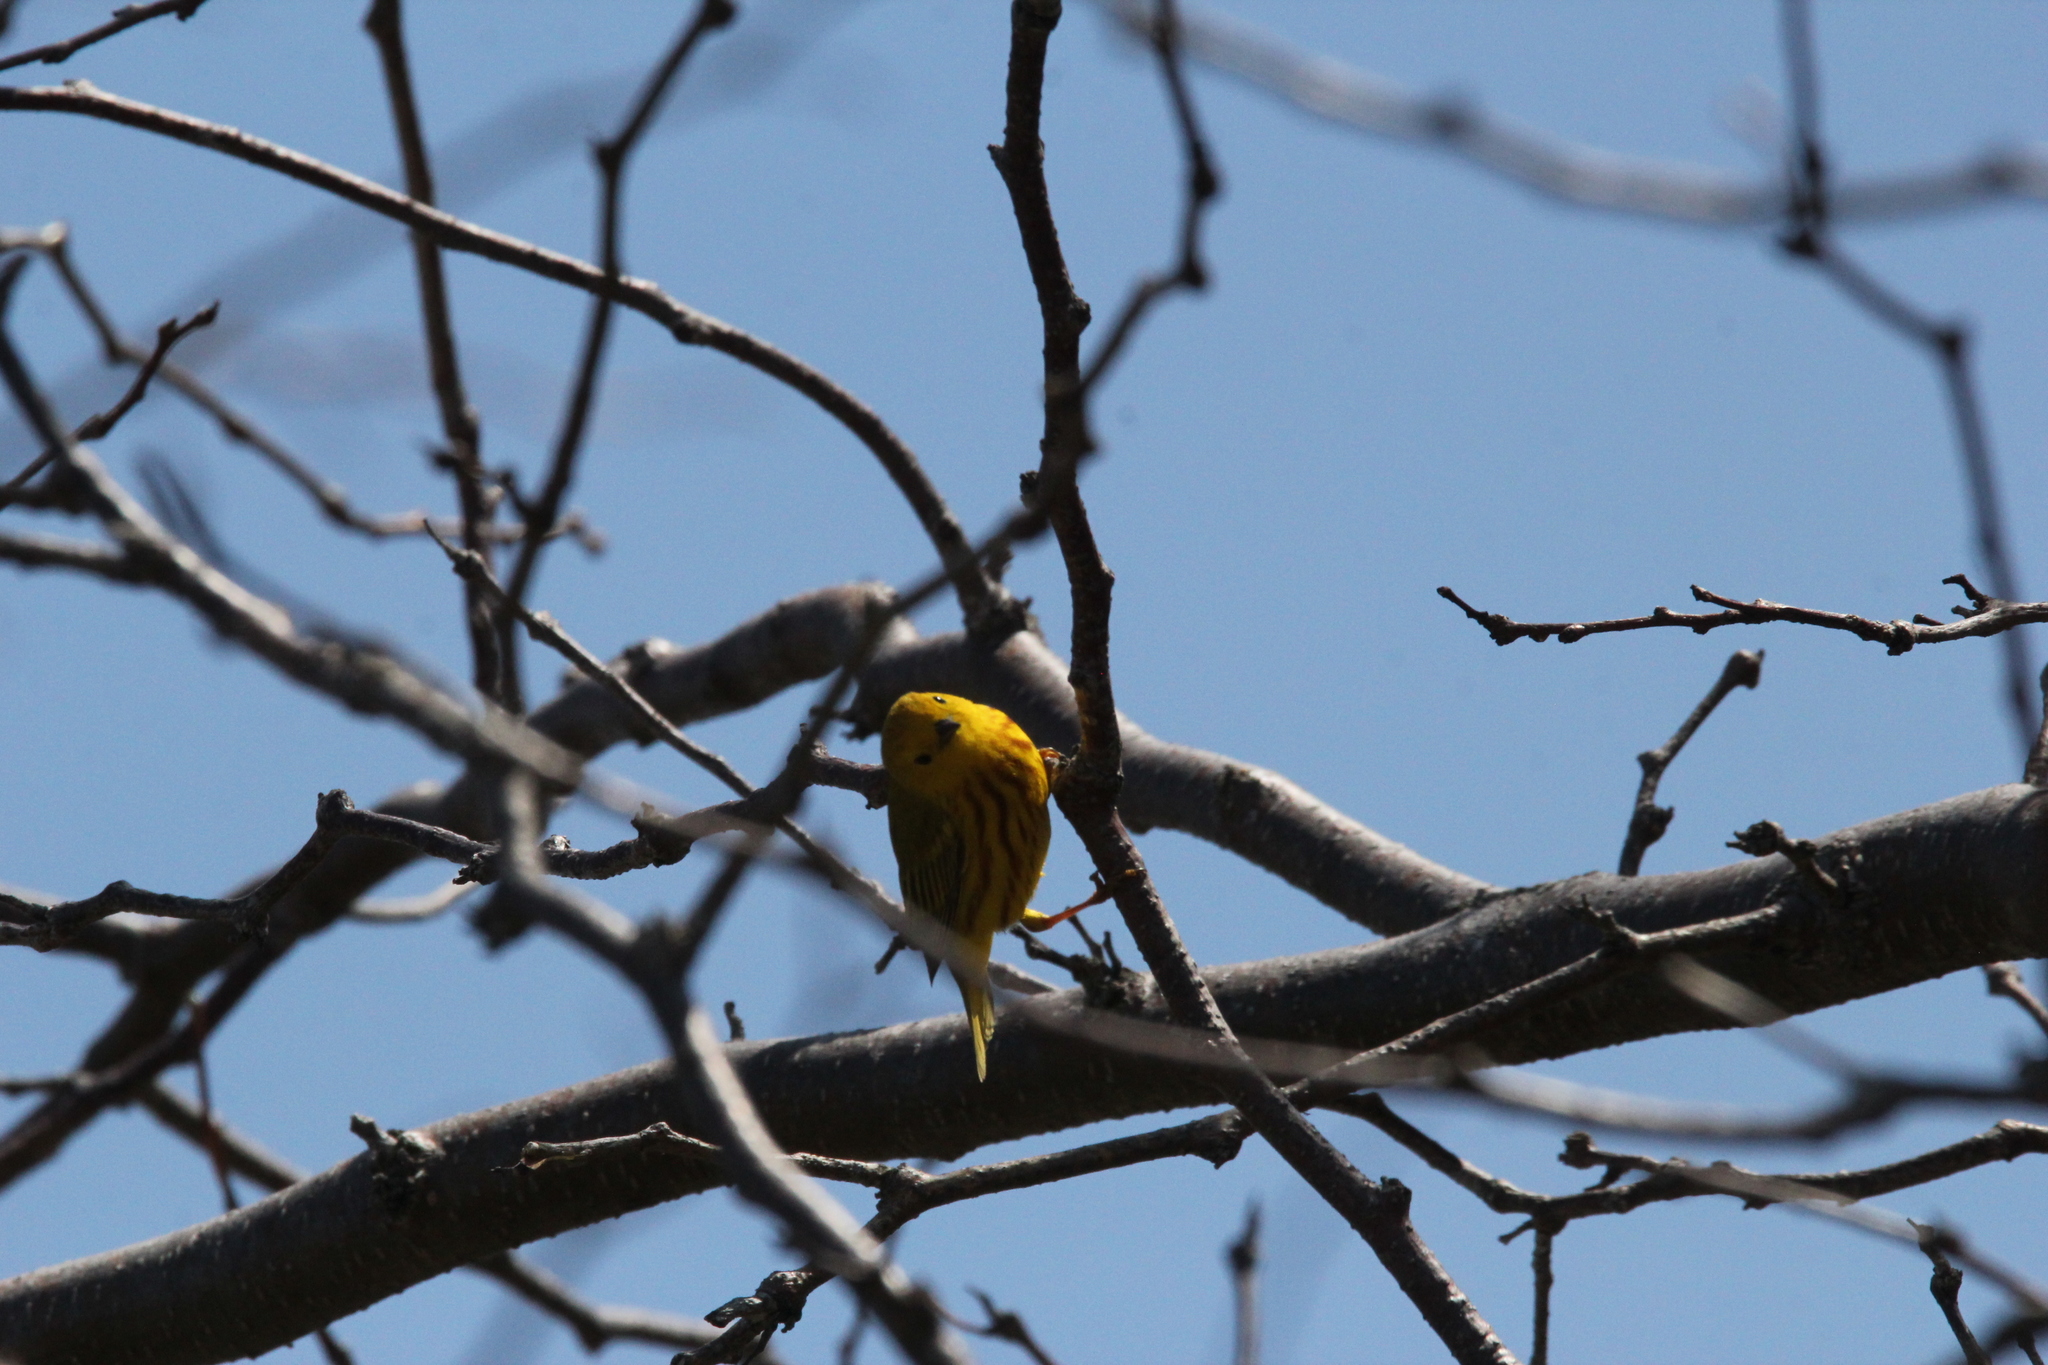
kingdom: Animalia
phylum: Chordata
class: Aves
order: Passeriformes
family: Parulidae
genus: Setophaga
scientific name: Setophaga petechia
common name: Yellow warbler
